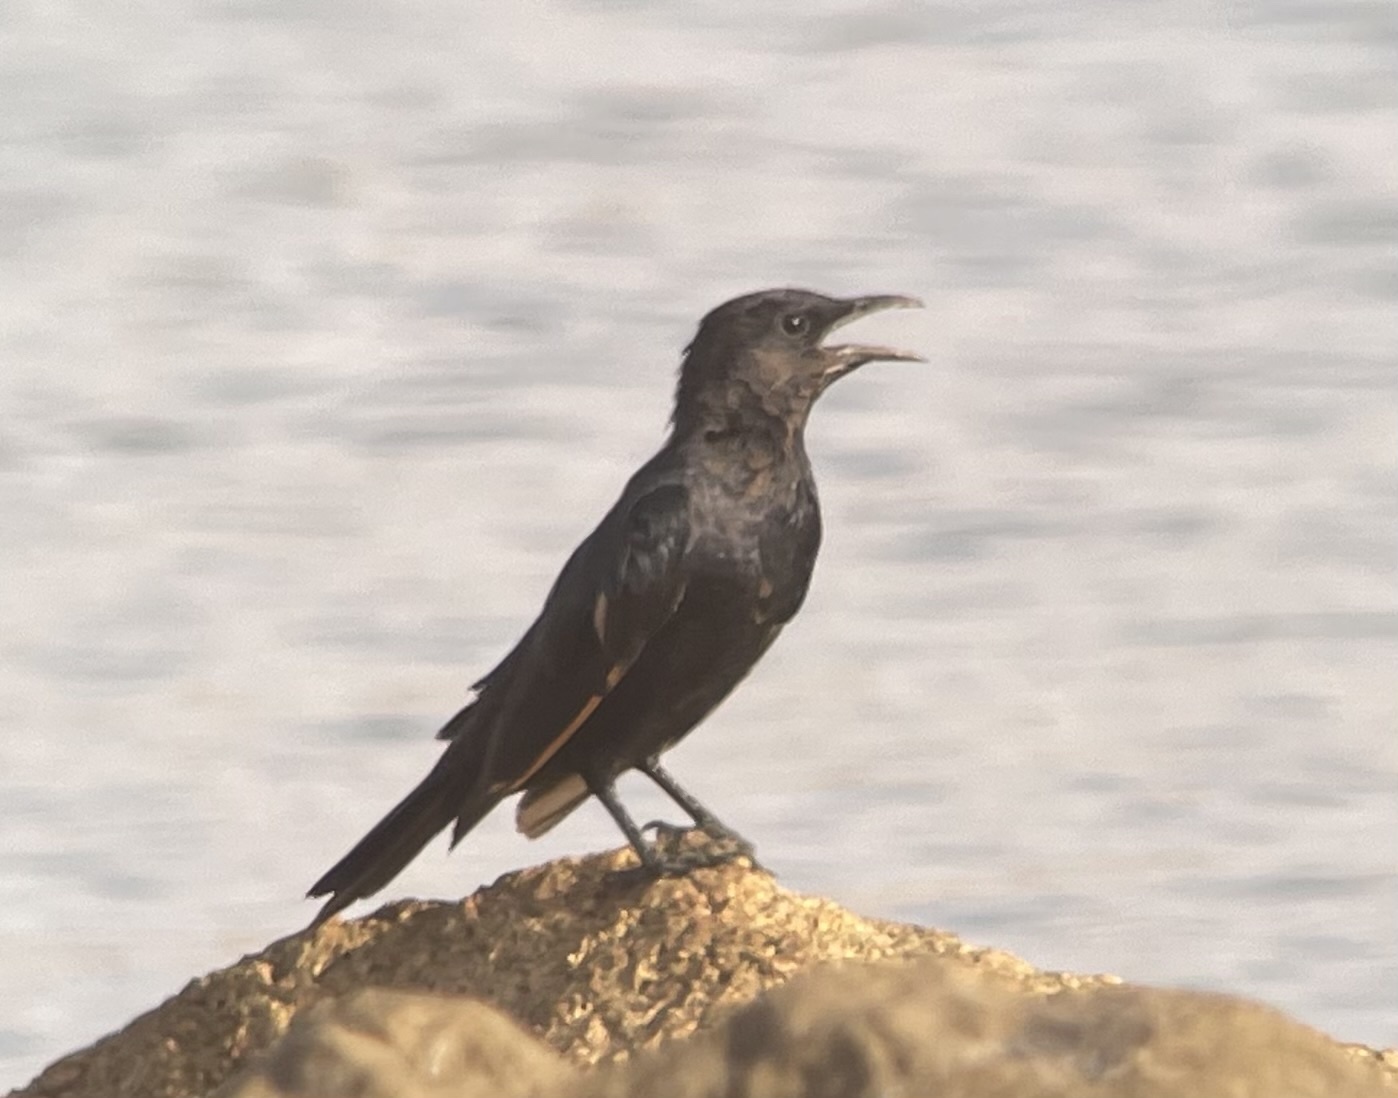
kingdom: Animalia
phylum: Chordata
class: Aves
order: Passeriformes
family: Sturnidae
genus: Onychognathus
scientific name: Onychognathus tristramii
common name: Tristram's starling
